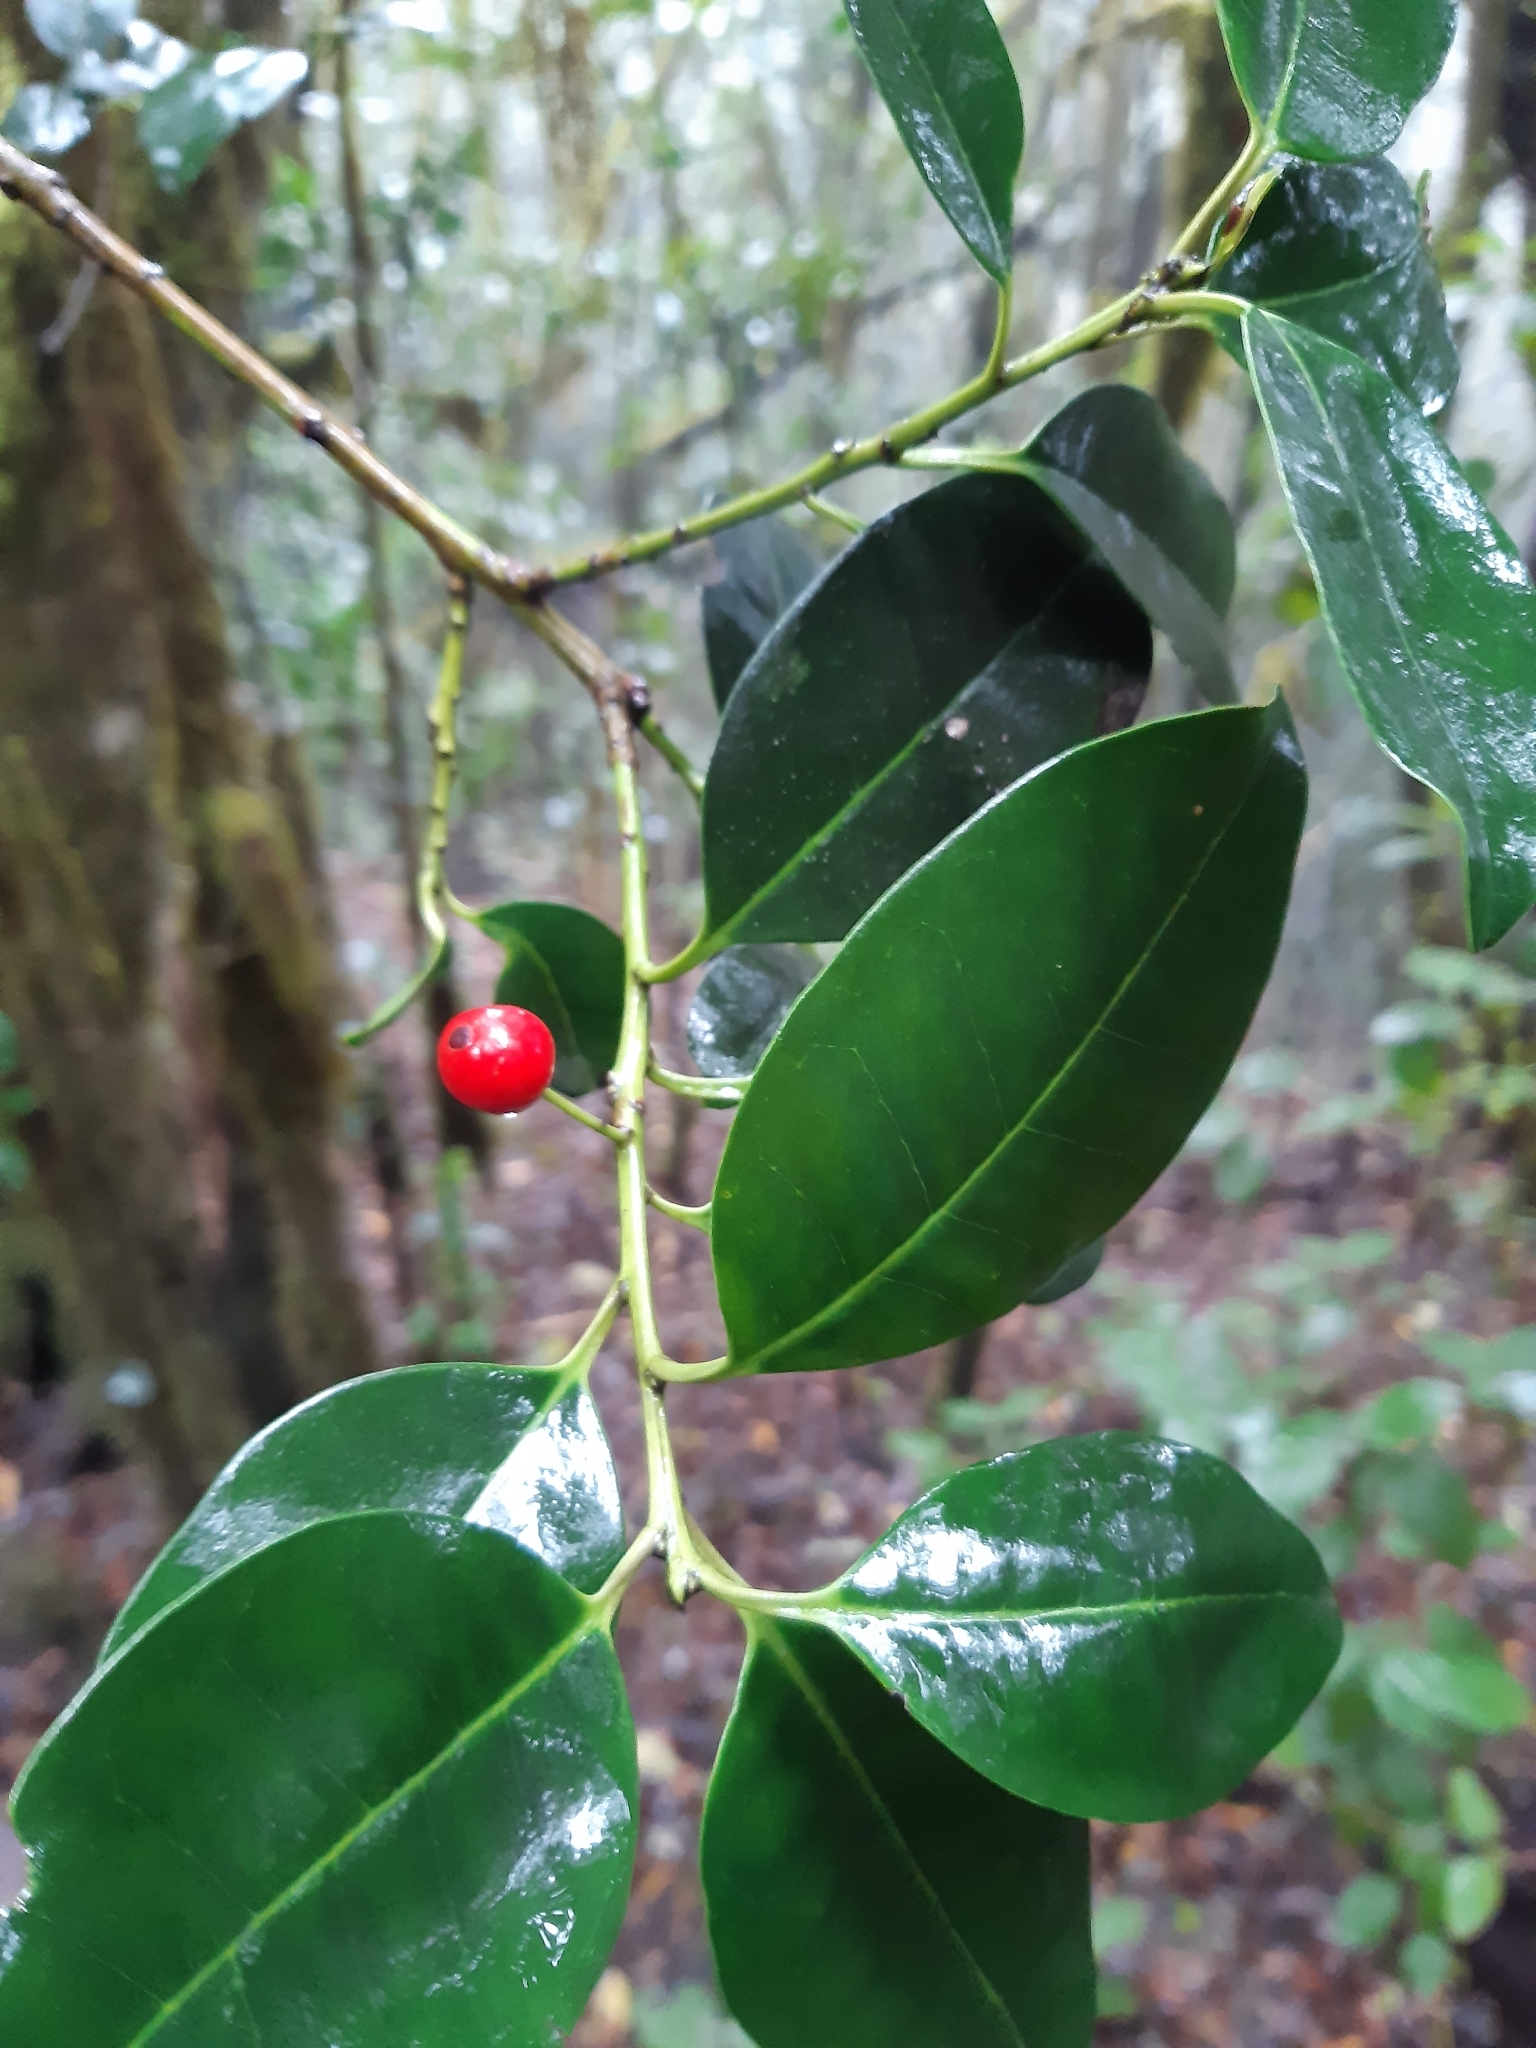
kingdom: Plantae
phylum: Tracheophyta
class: Magnoliopsida
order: Aquifoliales
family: Aquifoliaceae
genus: Ilex
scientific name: Ilex canariensis
